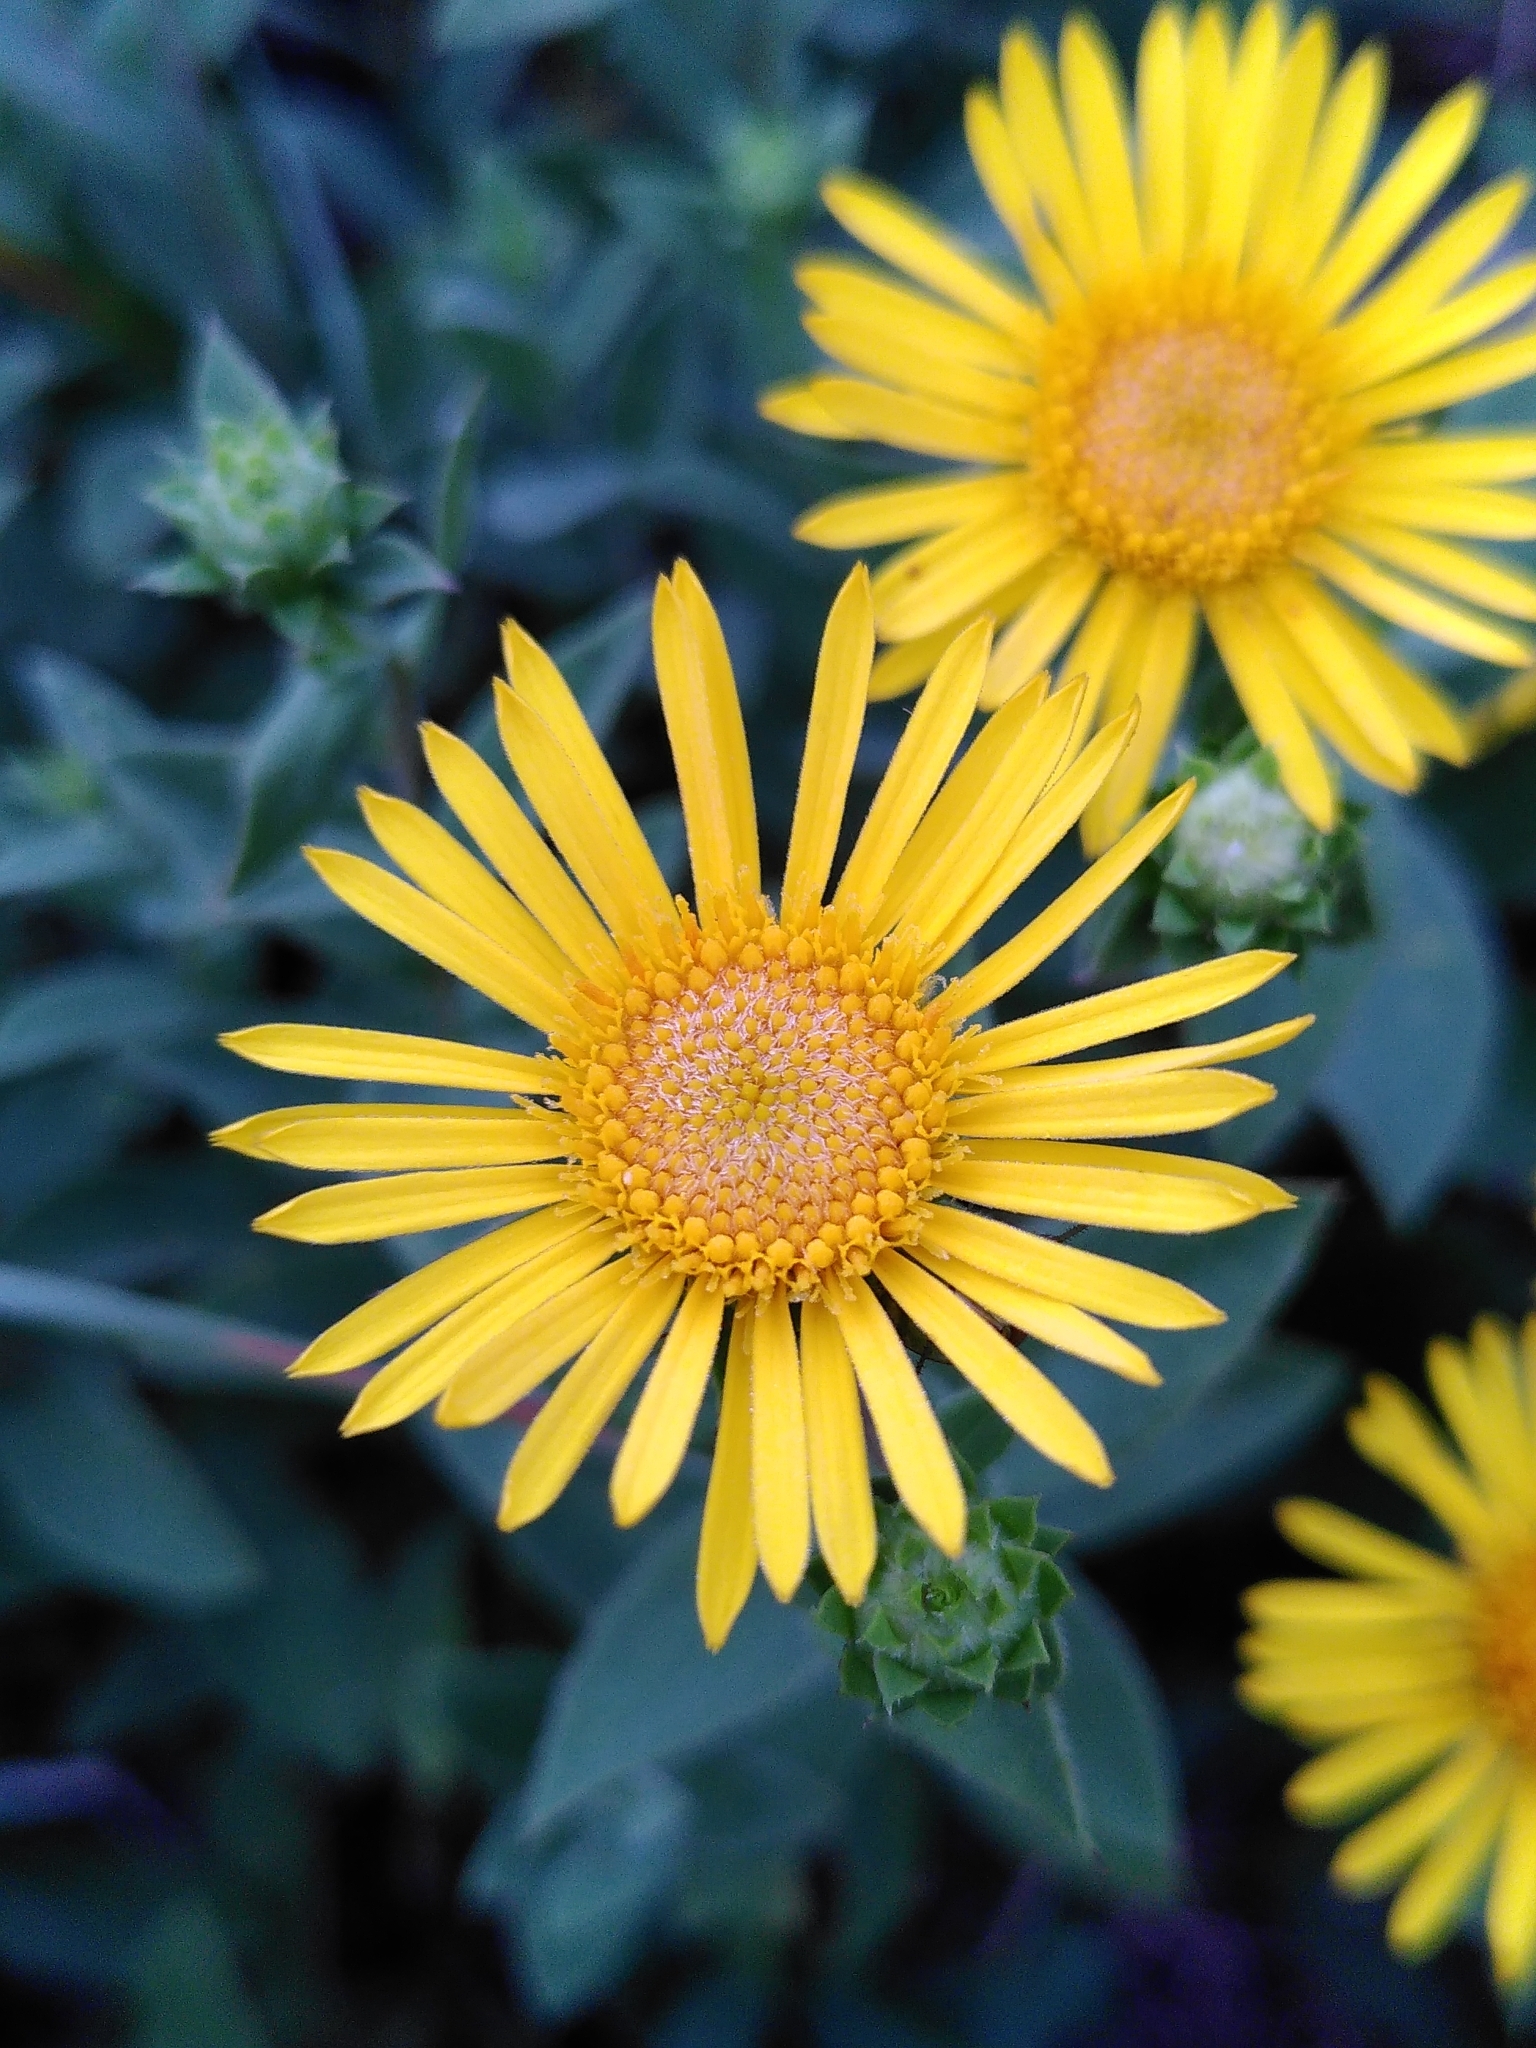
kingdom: Plantae
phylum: Tracheophyta
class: Magnoliopsida
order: Asterales
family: Asteraceae
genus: Pentanema
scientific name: Pentanema spiraeifolium
